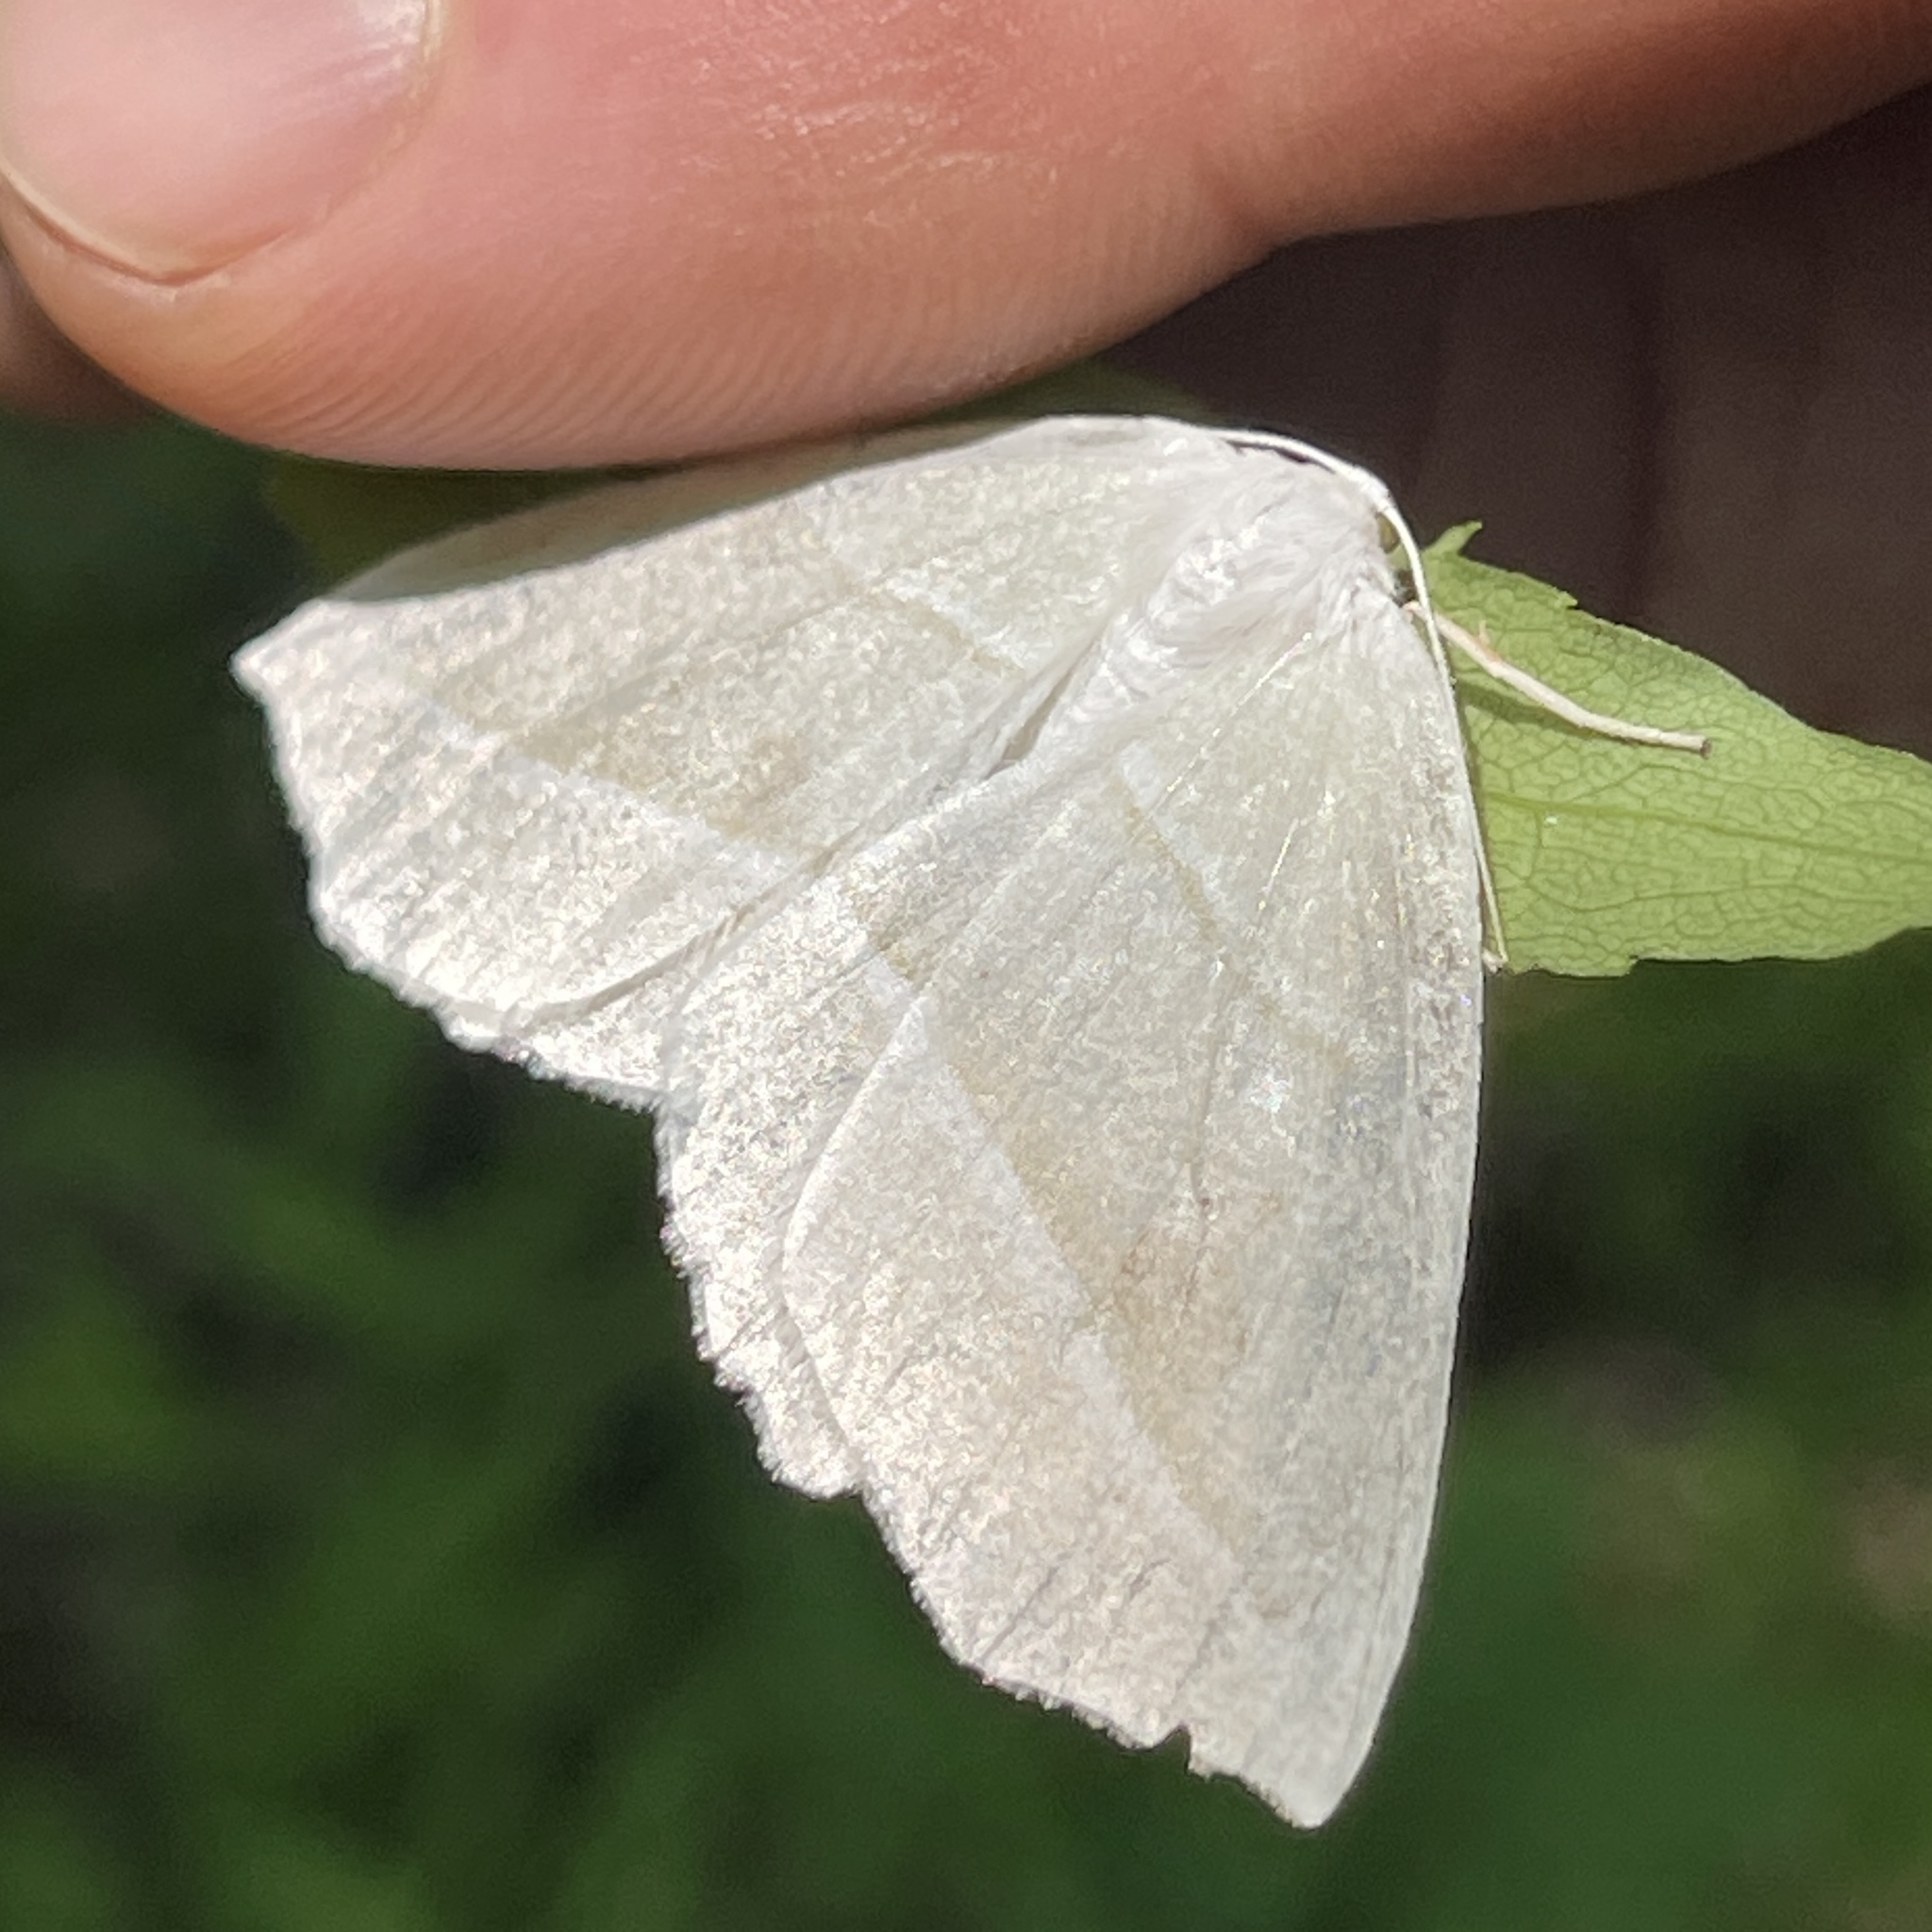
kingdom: Animalia
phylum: Arthropoda
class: Insecta
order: Lepidoptera
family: Geometridae
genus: Campaea
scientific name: Campaea perlata
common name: Fringed looper
